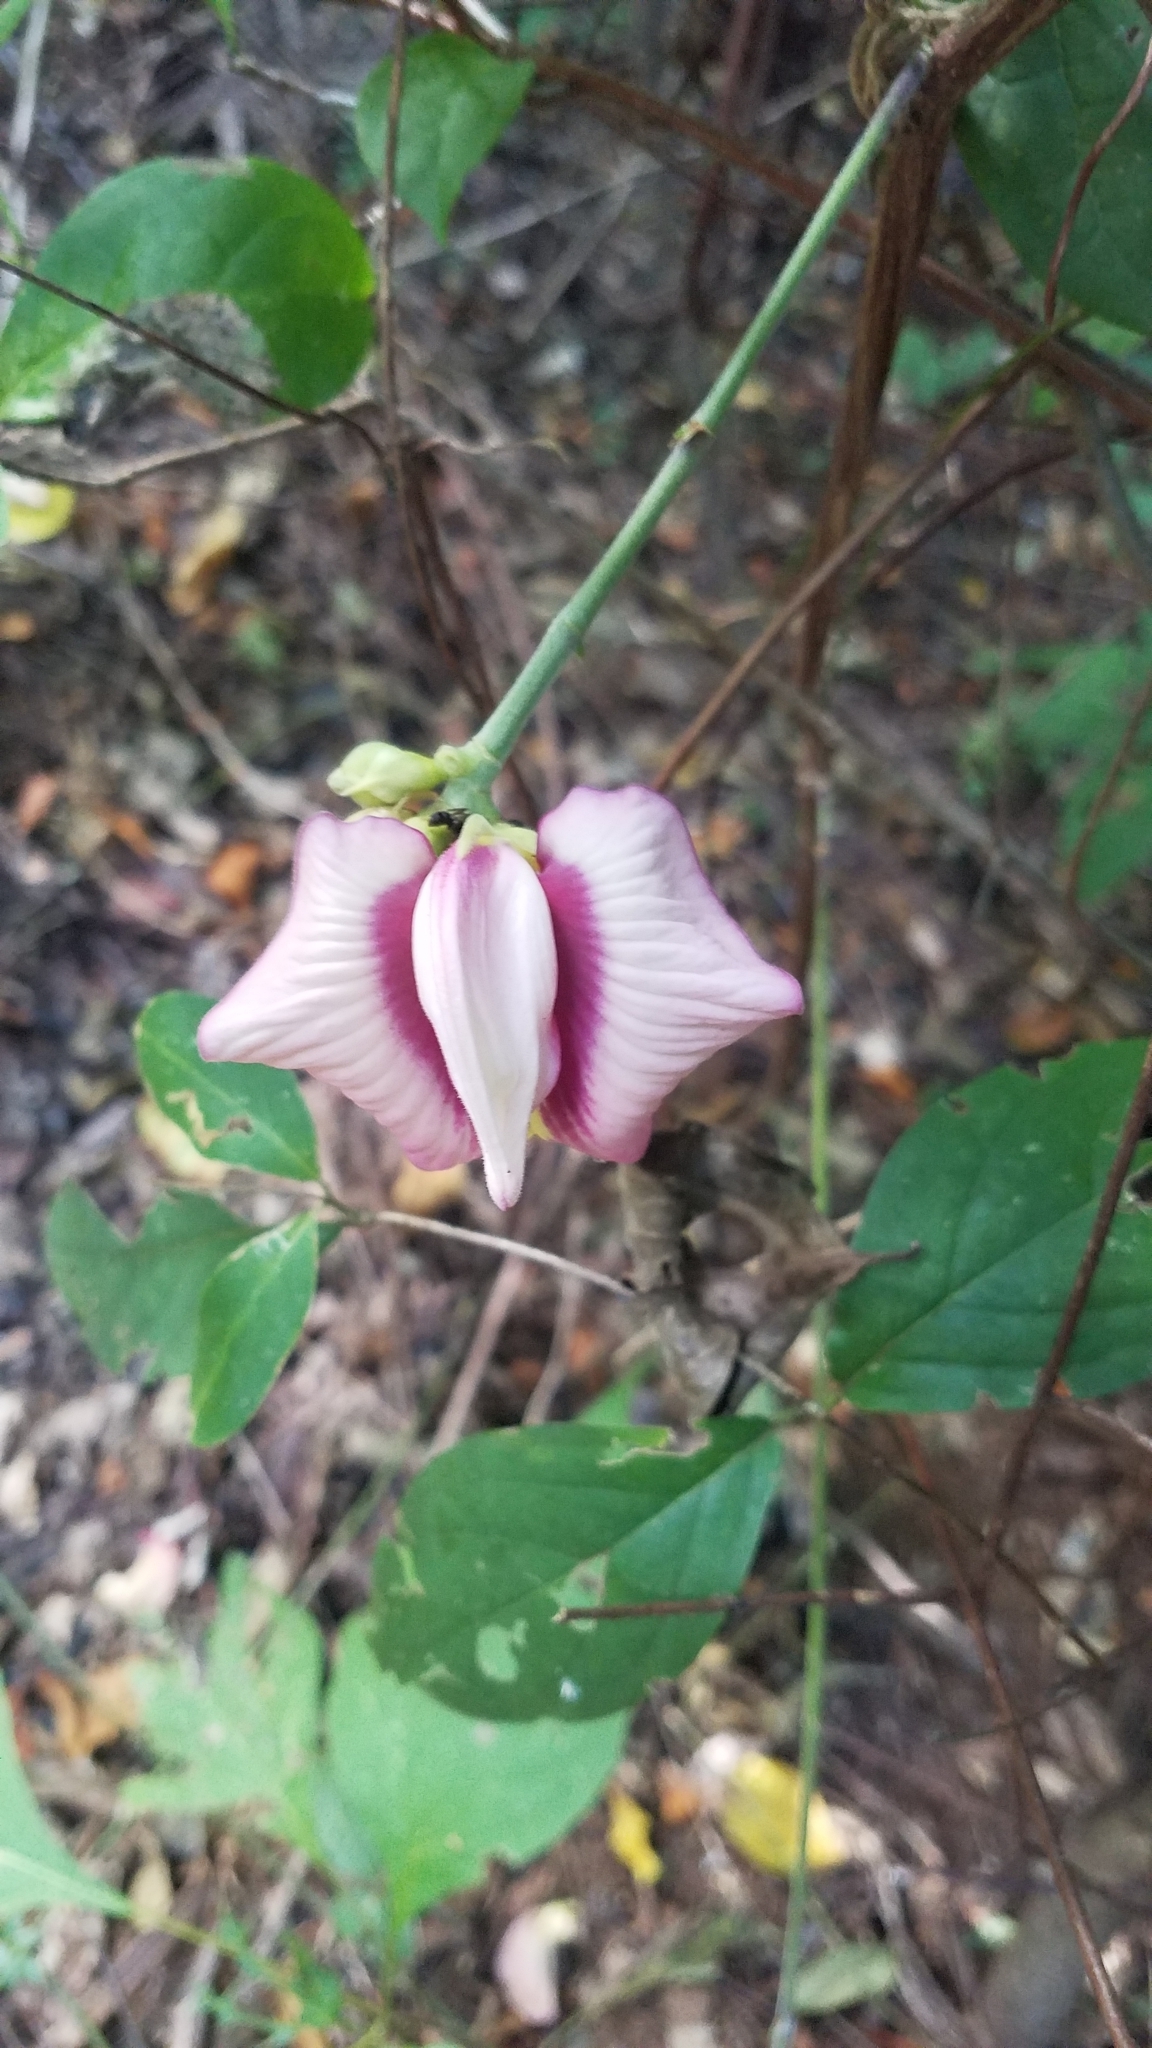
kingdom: Plantae
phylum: Tracheophyta
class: Magnoliopsida
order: Fabales
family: Fabaceae
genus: Centrosema
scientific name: Centrosema plumieri
